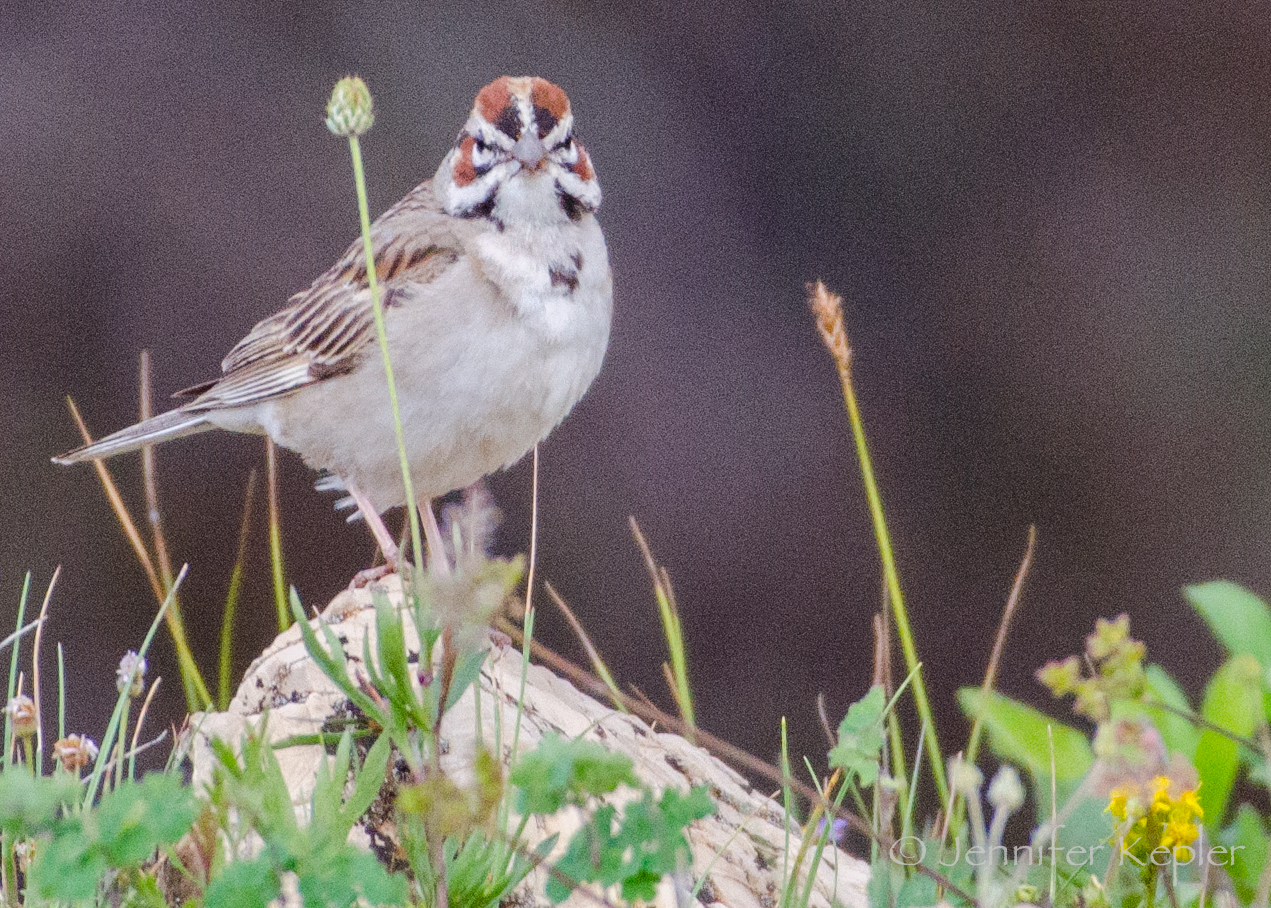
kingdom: Animalia
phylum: Chordata
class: Aves
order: Passeriformes
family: Passerellidae
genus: Chondestes
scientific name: Chondestes grammacus
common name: Lark sparrow
